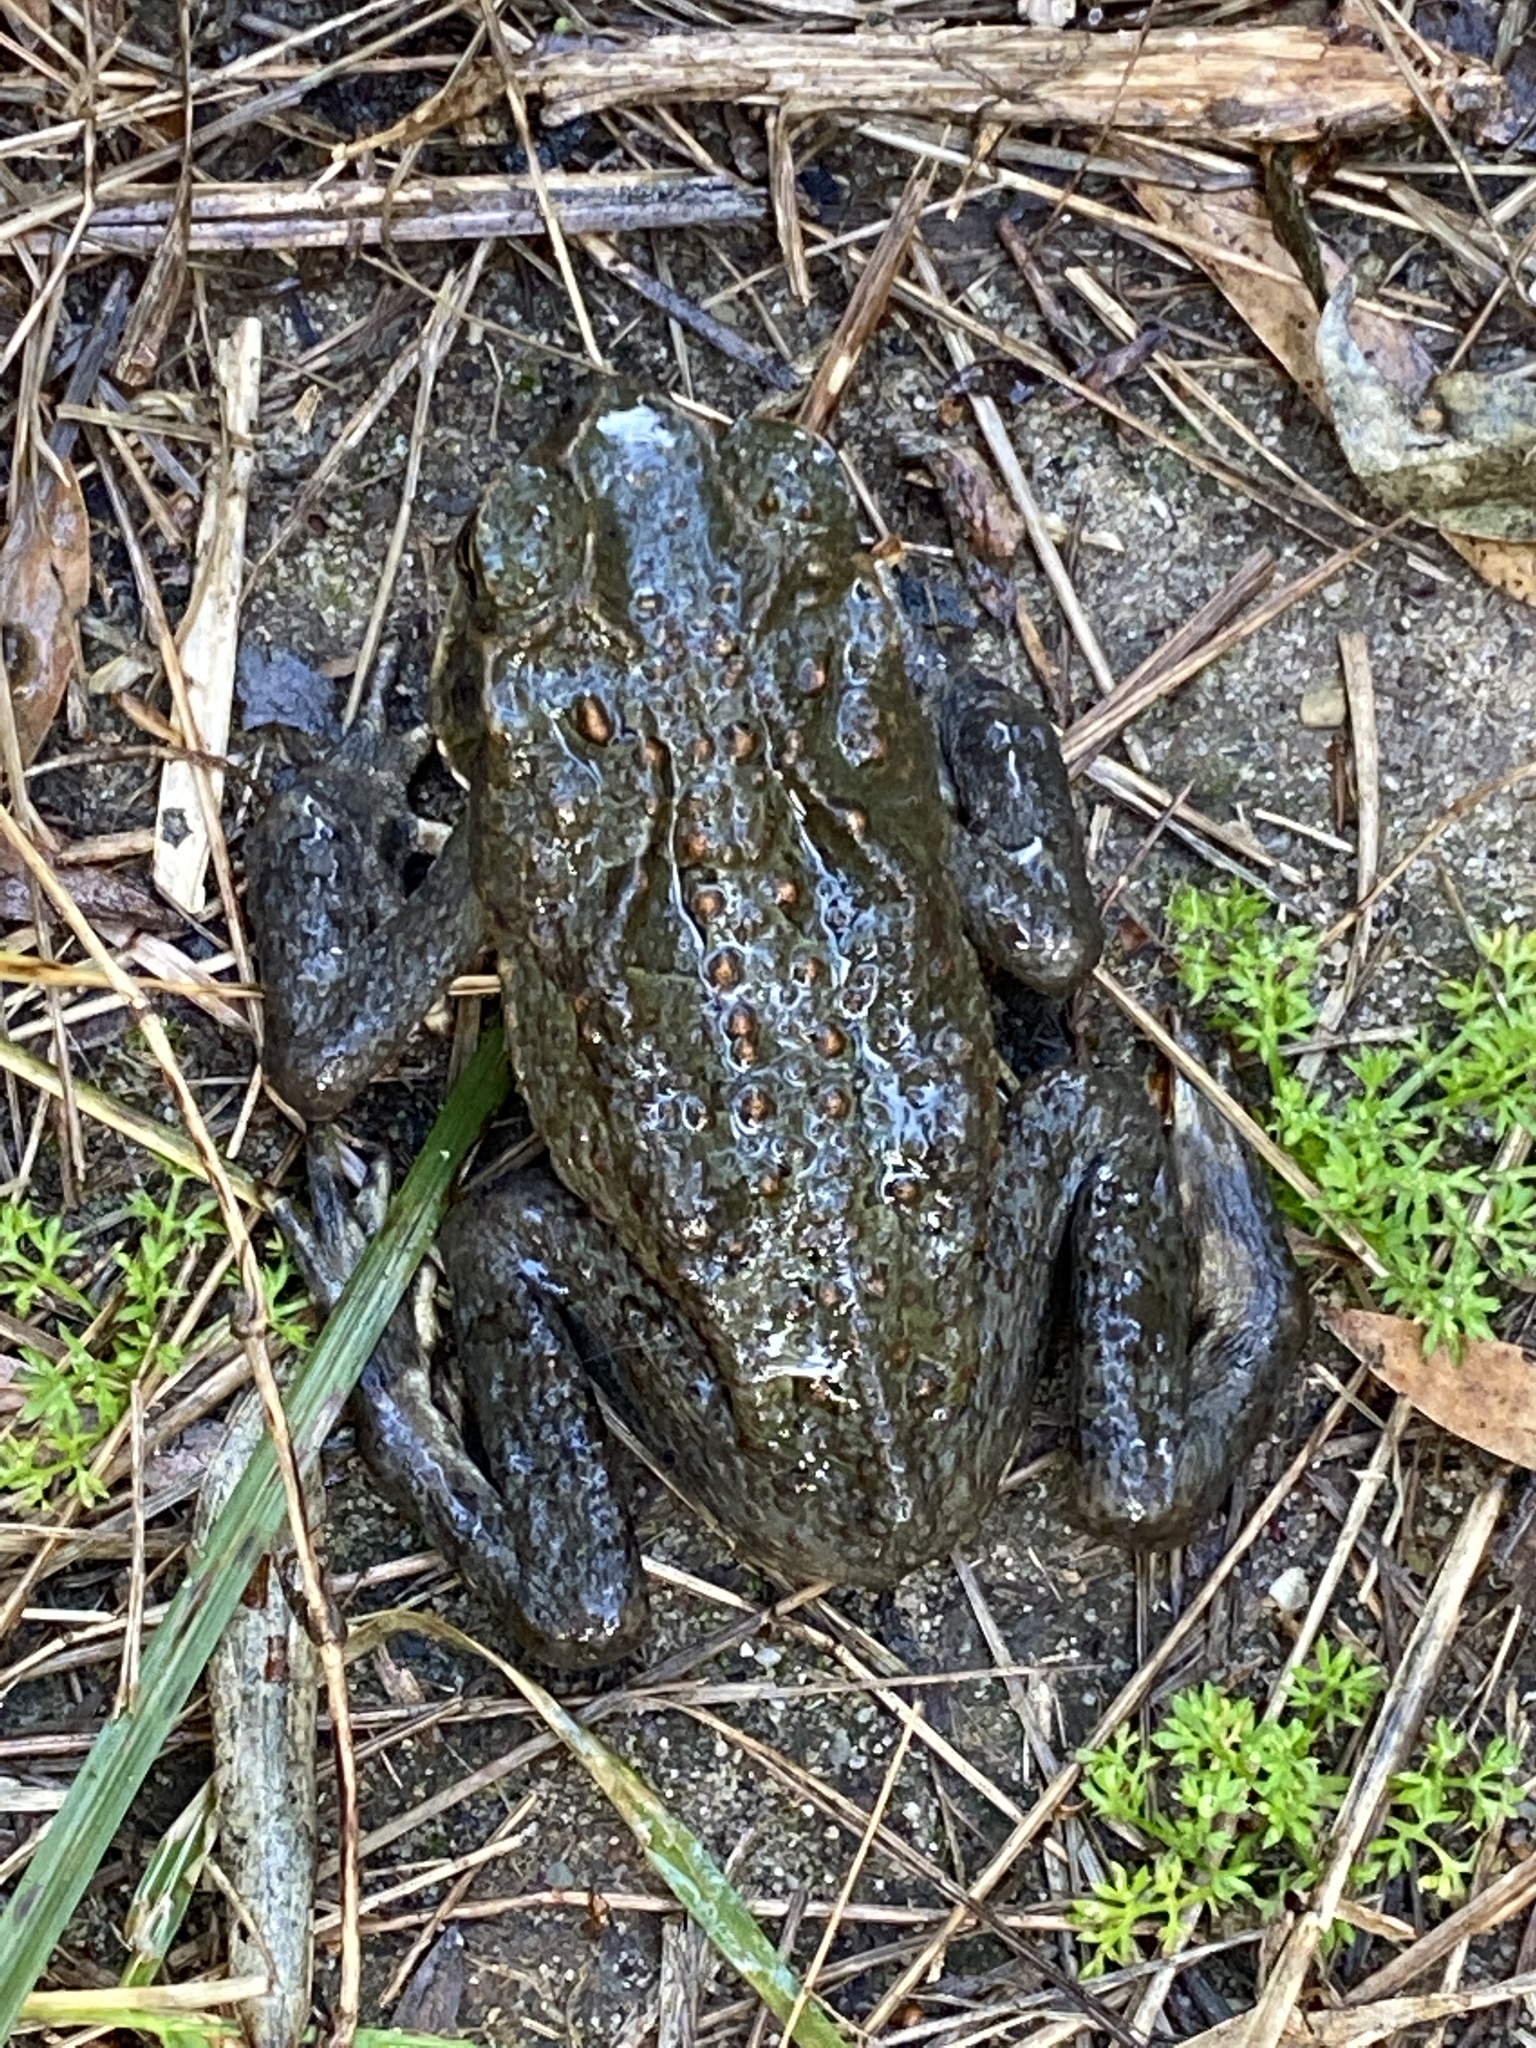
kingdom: Animalia
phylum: Chordata
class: Amphibia
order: Anura
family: Bufonidae
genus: Rhinella
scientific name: Rhinella marina
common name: Cane toad
